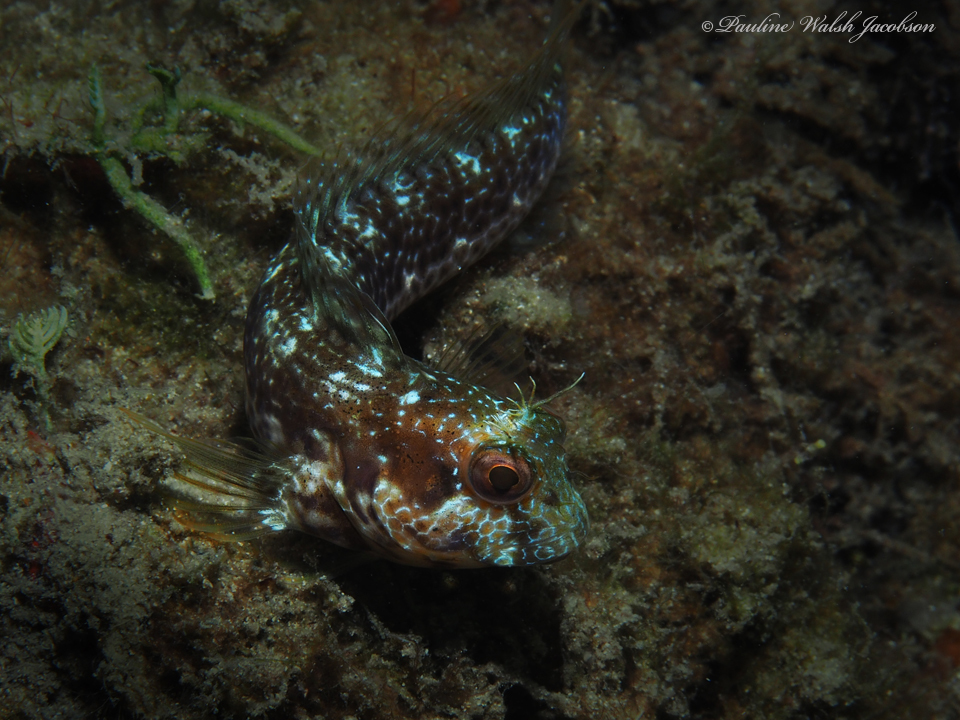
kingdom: Animalia
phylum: Chordata
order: Perciformes
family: Blenniidae
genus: Parablennius
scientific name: Parablennius marmoreus
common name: Seaweed blenny
